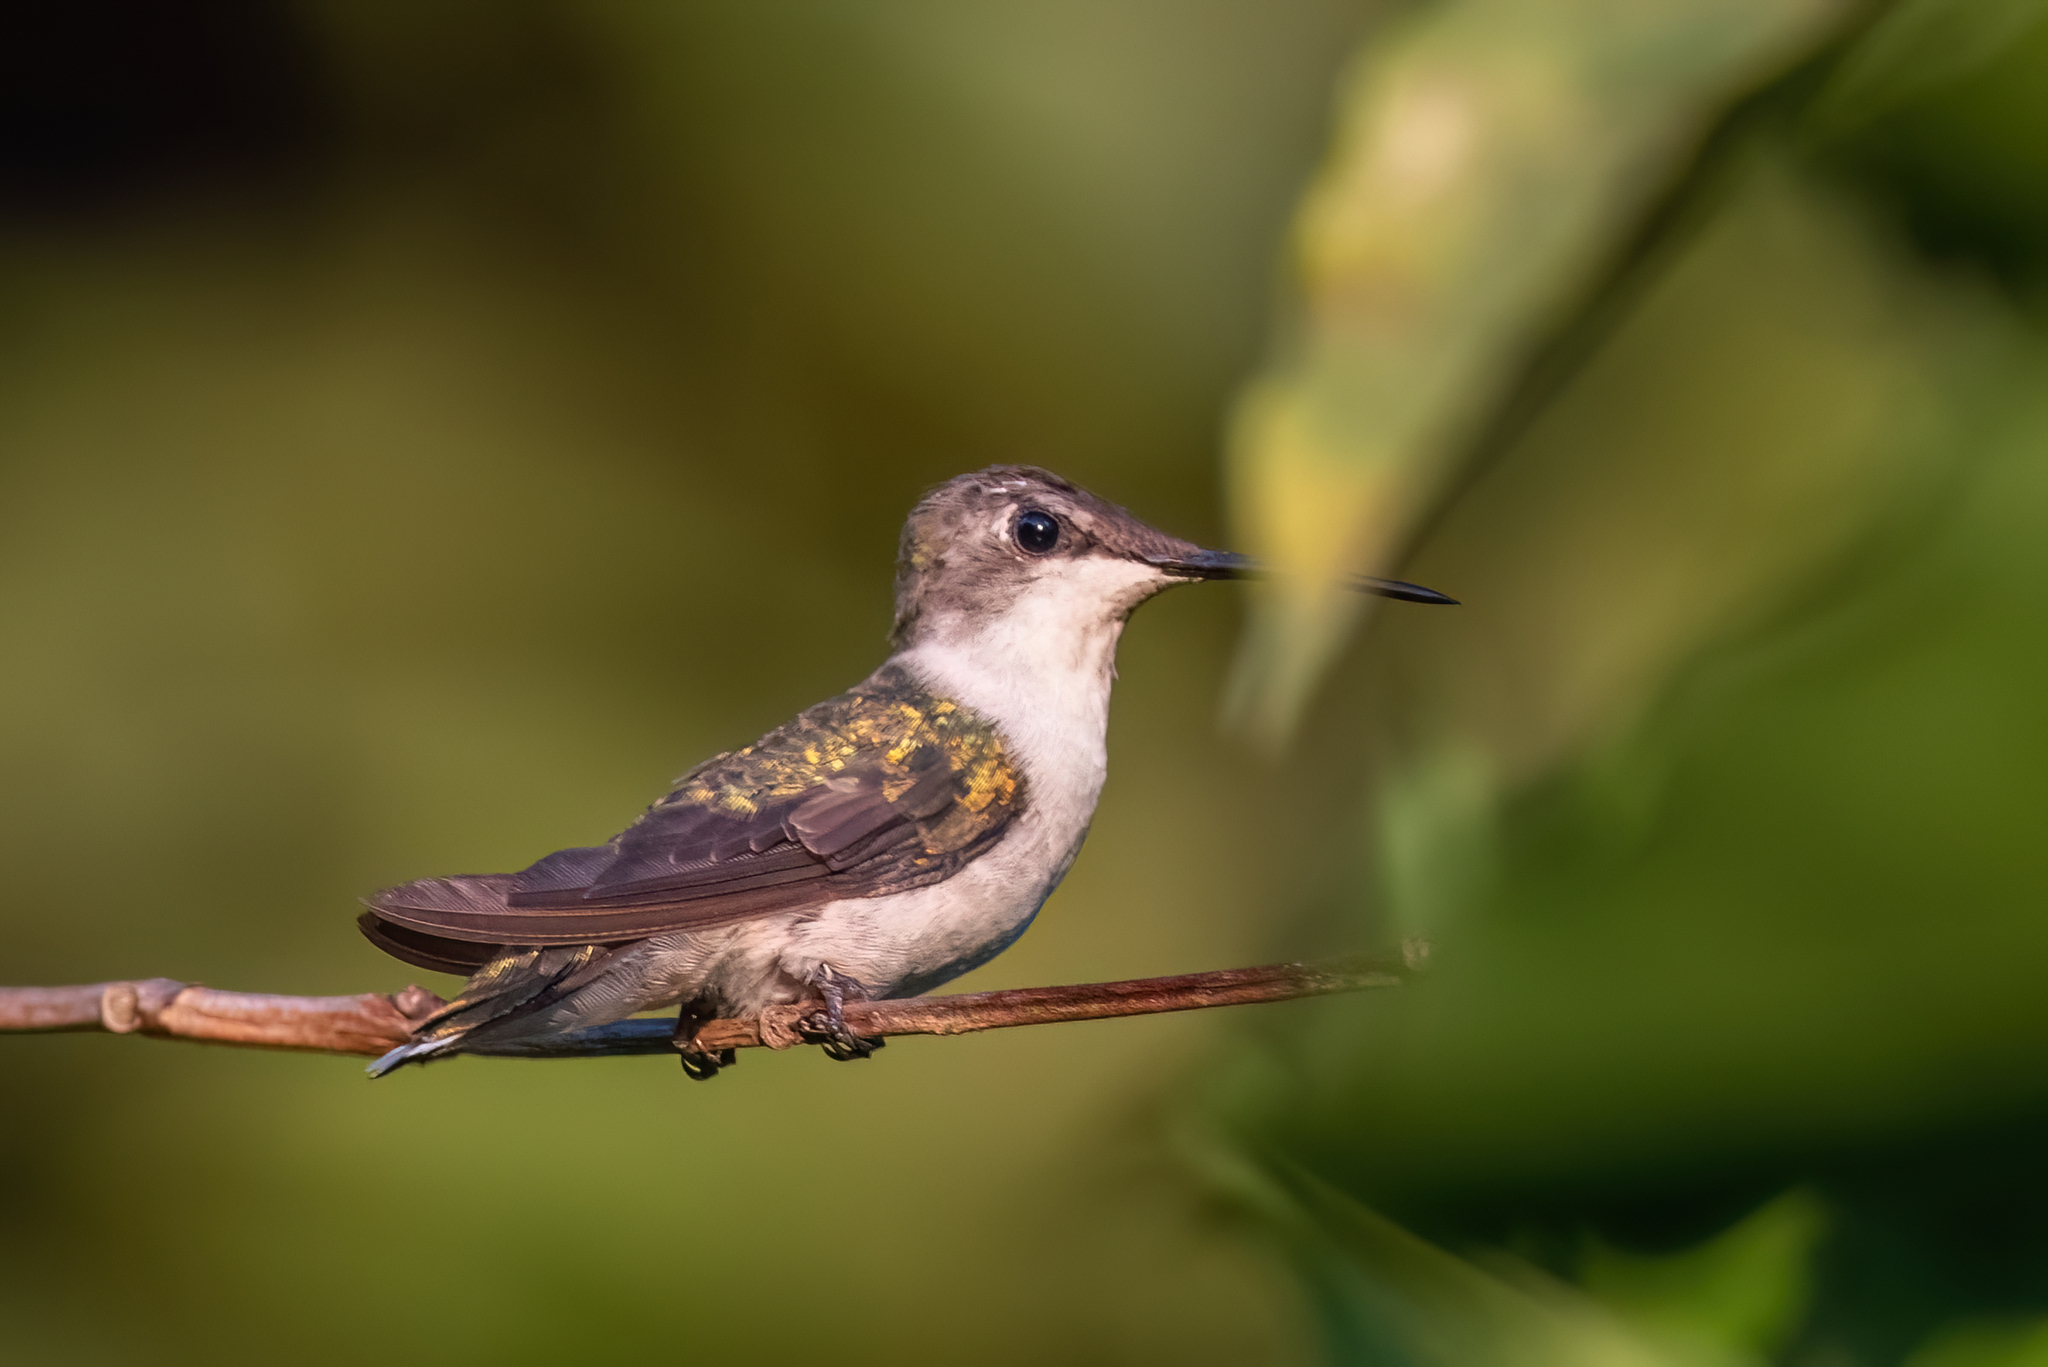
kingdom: Animalia
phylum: Chordata
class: Aves
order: Apodiformes
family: Trochilidae
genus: Archilochus
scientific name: Archilochus colubris
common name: Ruby-throated hummingbird
